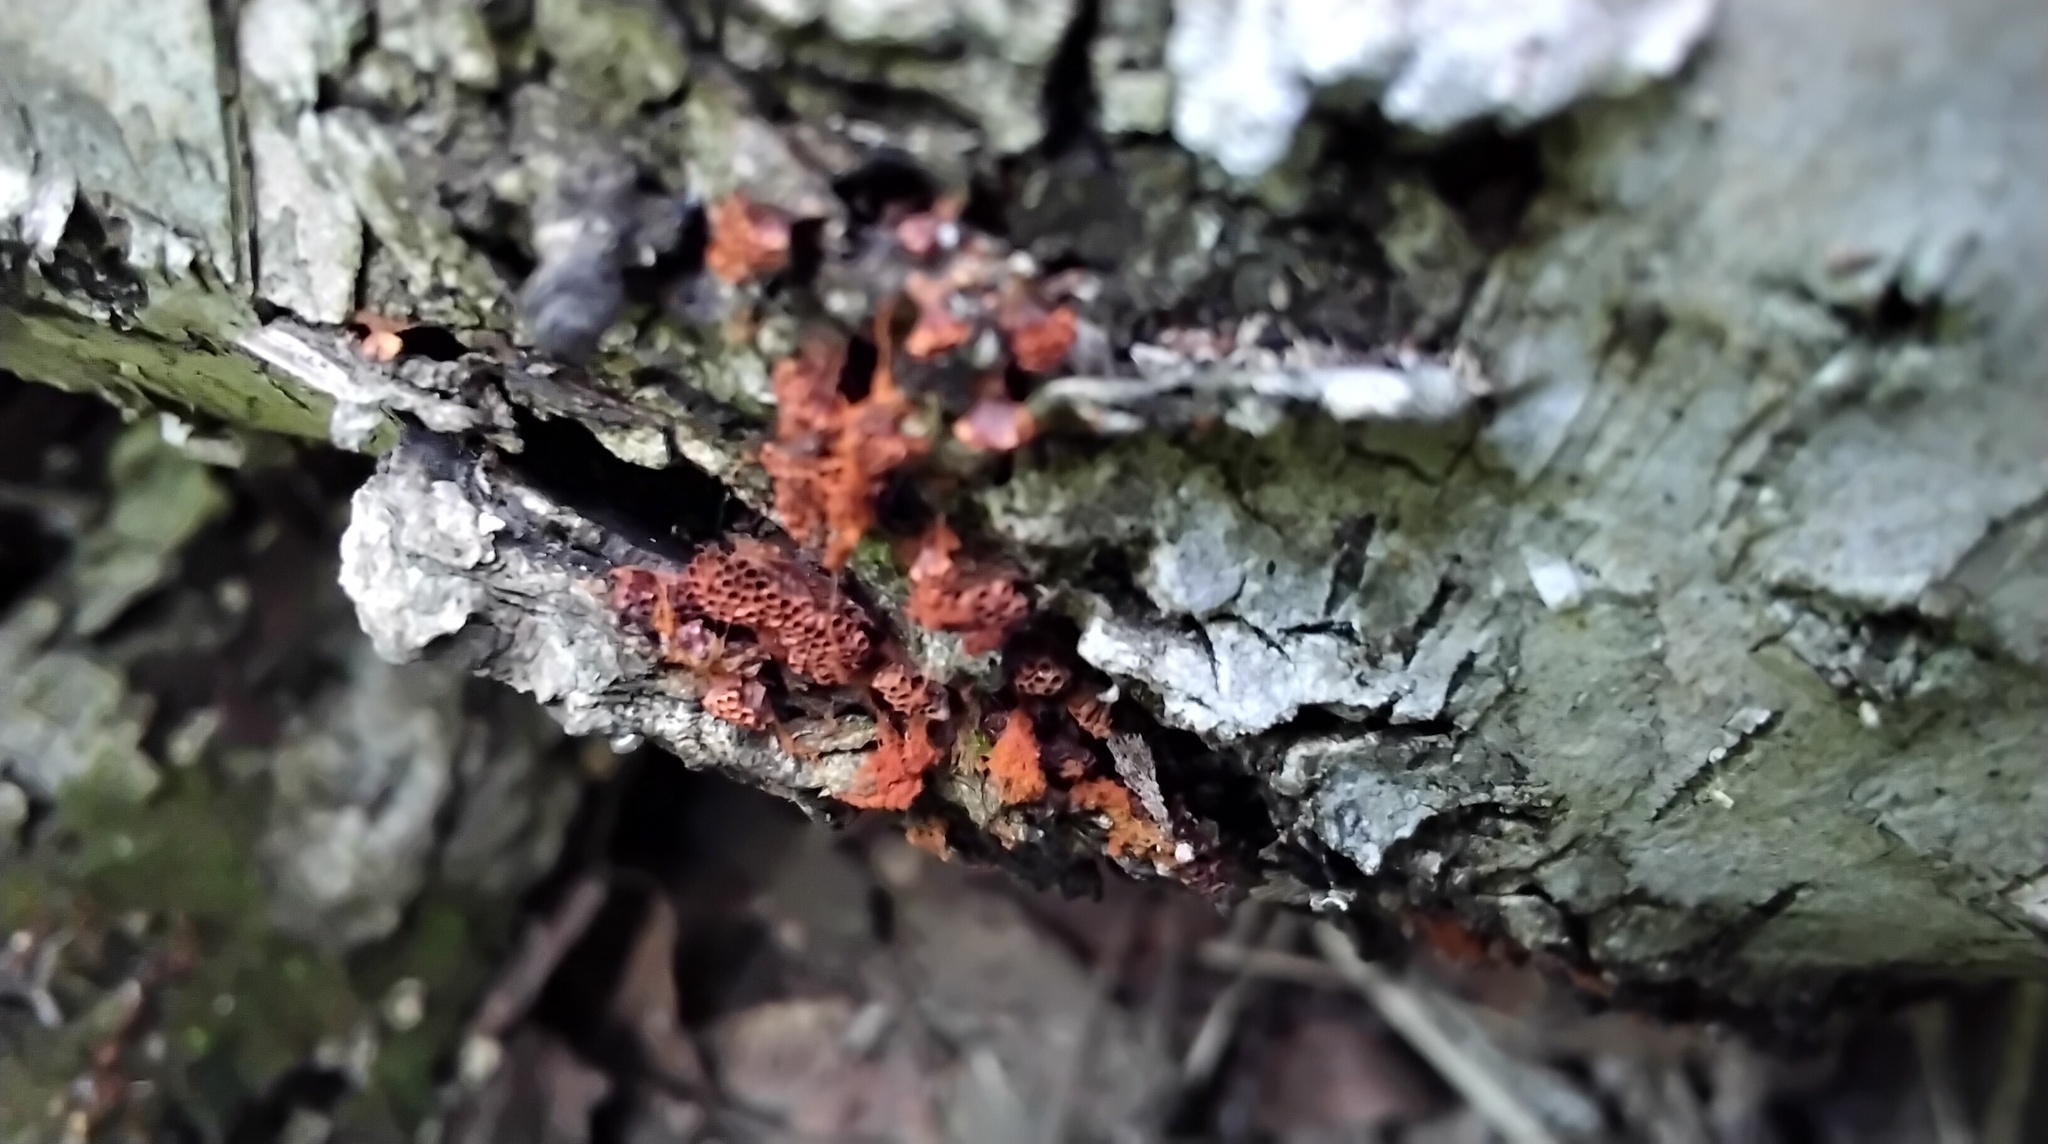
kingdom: Protozoa
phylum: Mycetozoa
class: Myxomycetes
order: Trichiales
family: Trichiaceae
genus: Metatrichia
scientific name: Metatrichia vesparia
